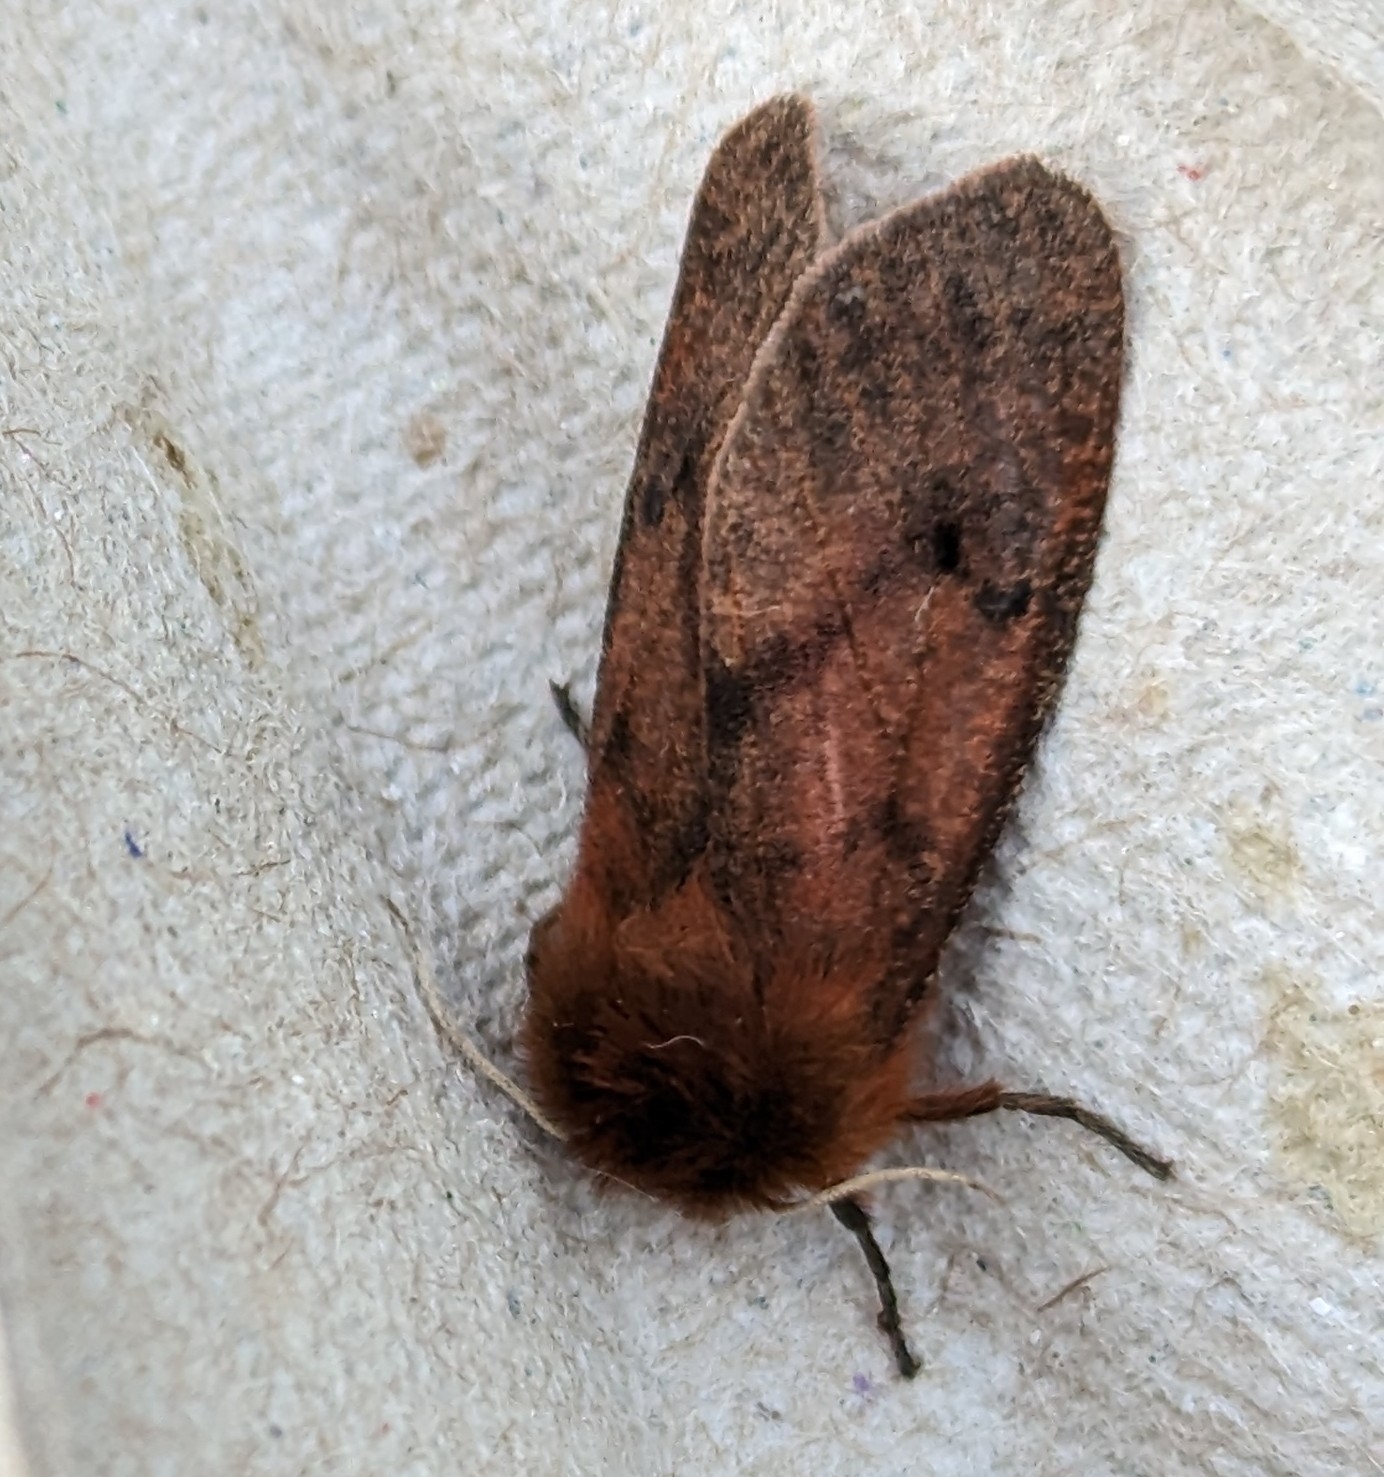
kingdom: Animalia
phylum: Arthropoda
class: Insecta
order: Lepidoptera
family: Erebidae
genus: Phragmatobia
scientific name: Phragmatobia assimilans
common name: Large ruby tiger moth
